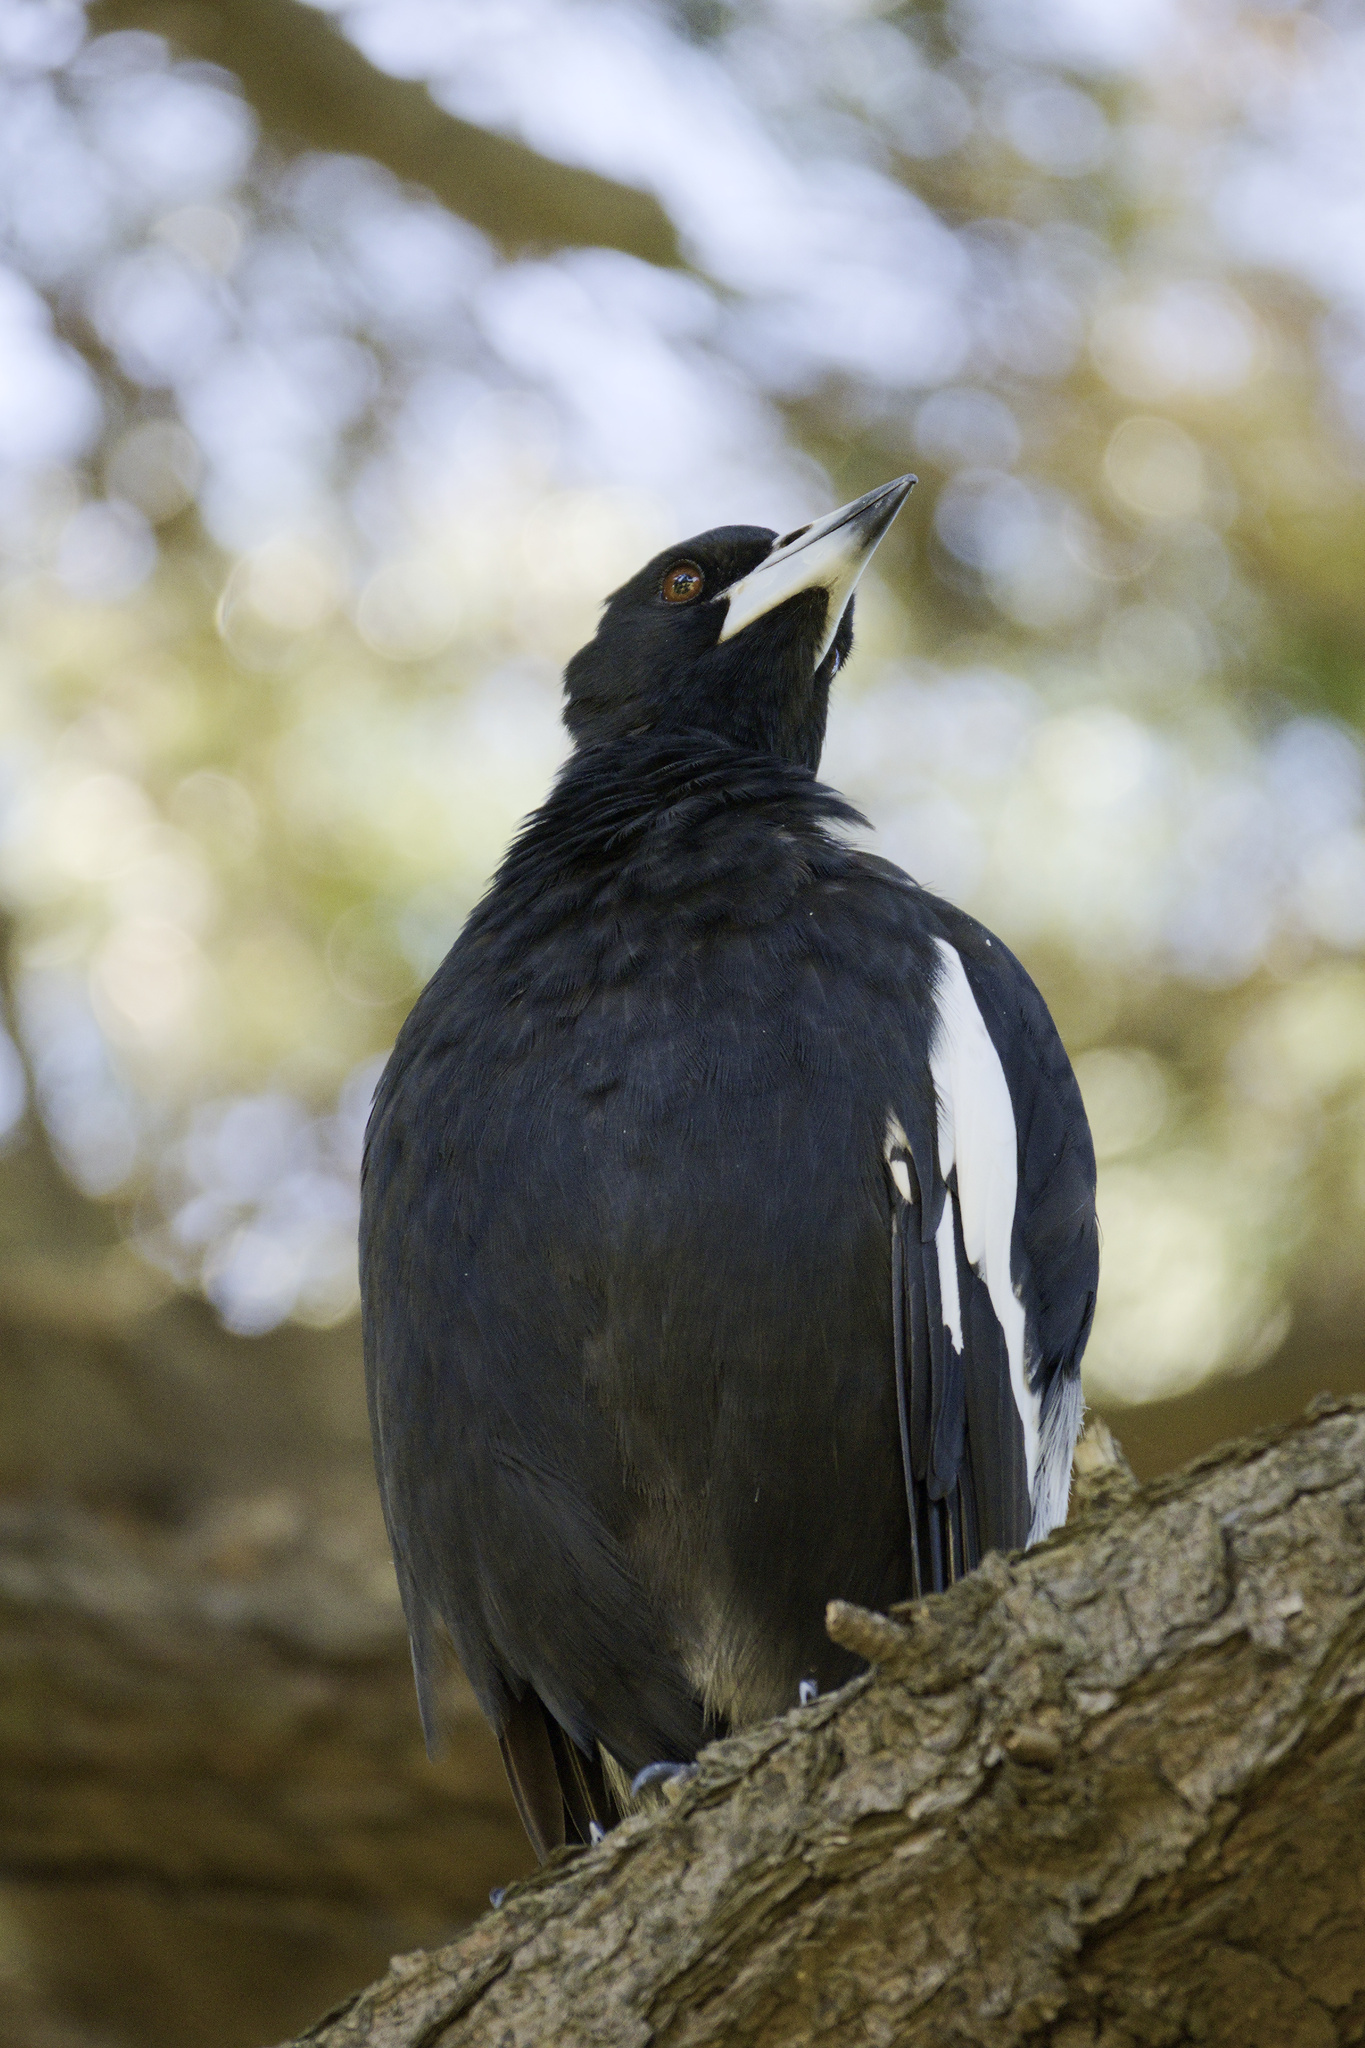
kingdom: Animalia
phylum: Chordata
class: Aves
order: Passeriformes
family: Cracticidae
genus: Gymnorhina
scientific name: Gymnorhina tibicen
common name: Australian magpie
